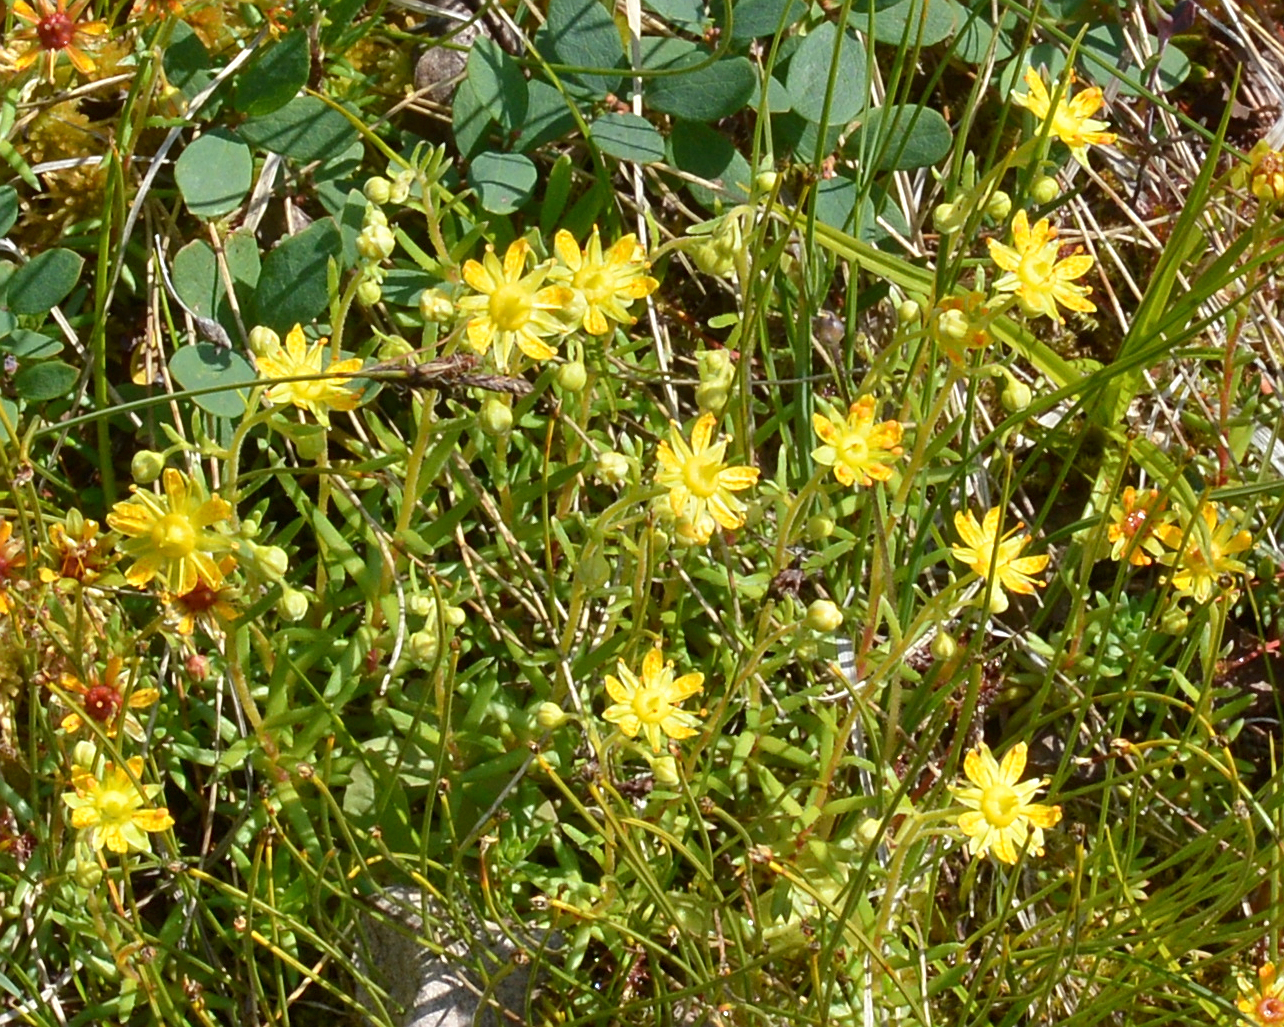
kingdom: Plantae
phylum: Tracheophyta
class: Magnoliopsida
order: Saxifragales
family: Saxifragaceae
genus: Saxifraga
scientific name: Saxifraga aizoides
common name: Yellow mountain saxifrage
